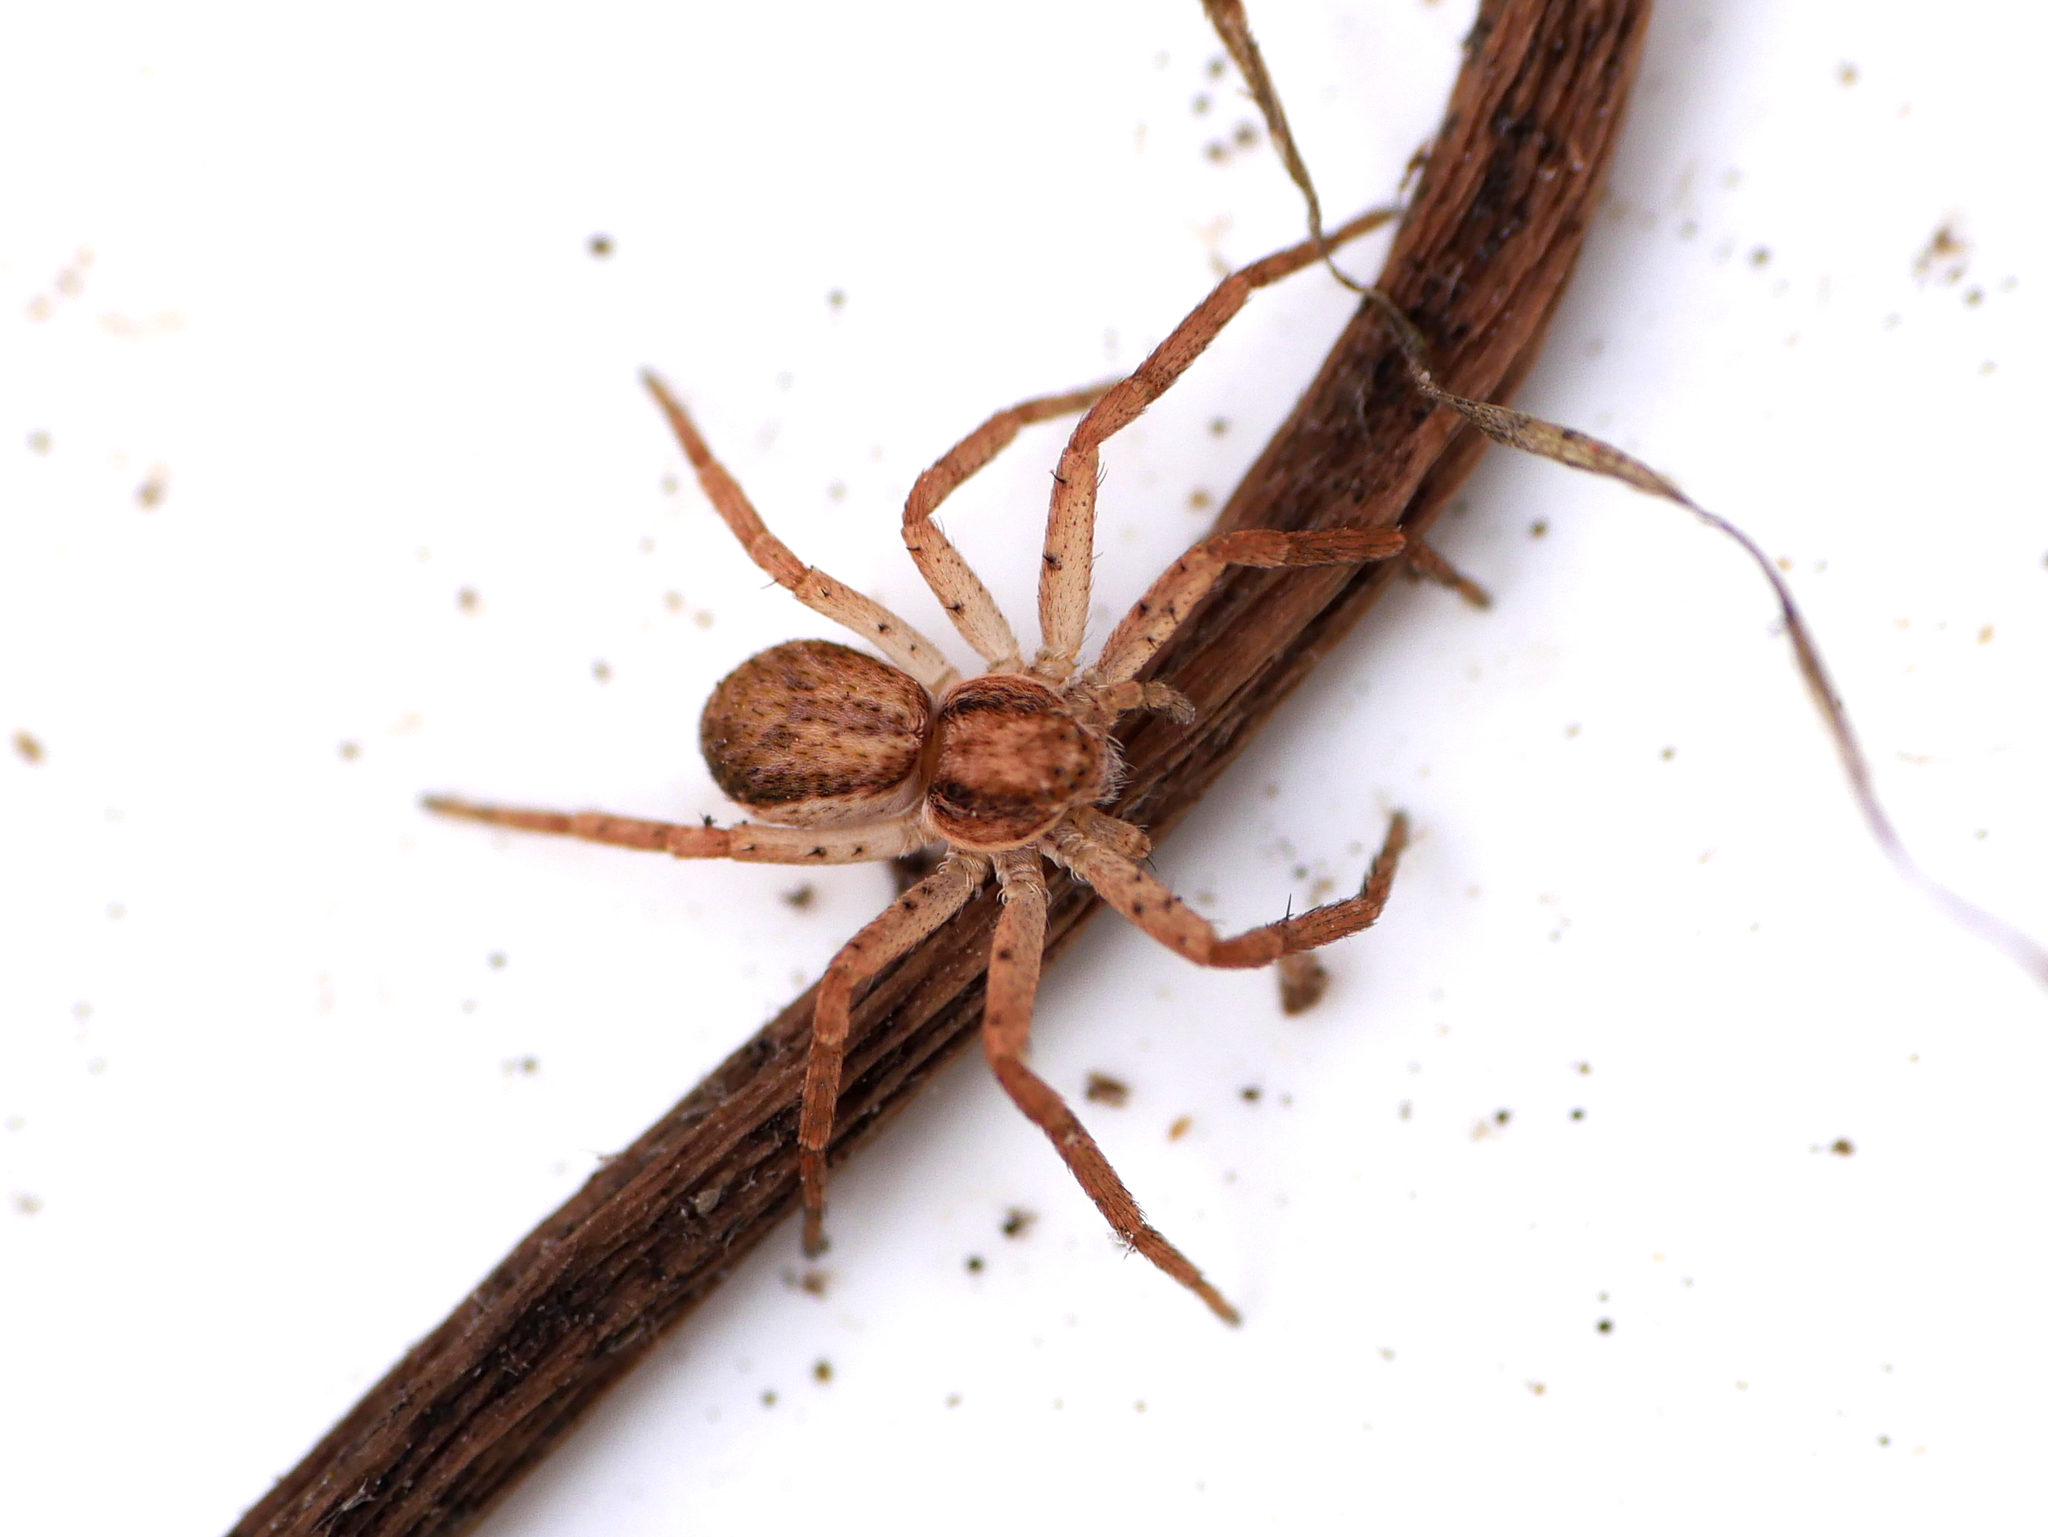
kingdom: Animalia
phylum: Arthropoda
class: Arachnida
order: Araneae
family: Philodromidae
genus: Philodromus
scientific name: Philodromus dispar
